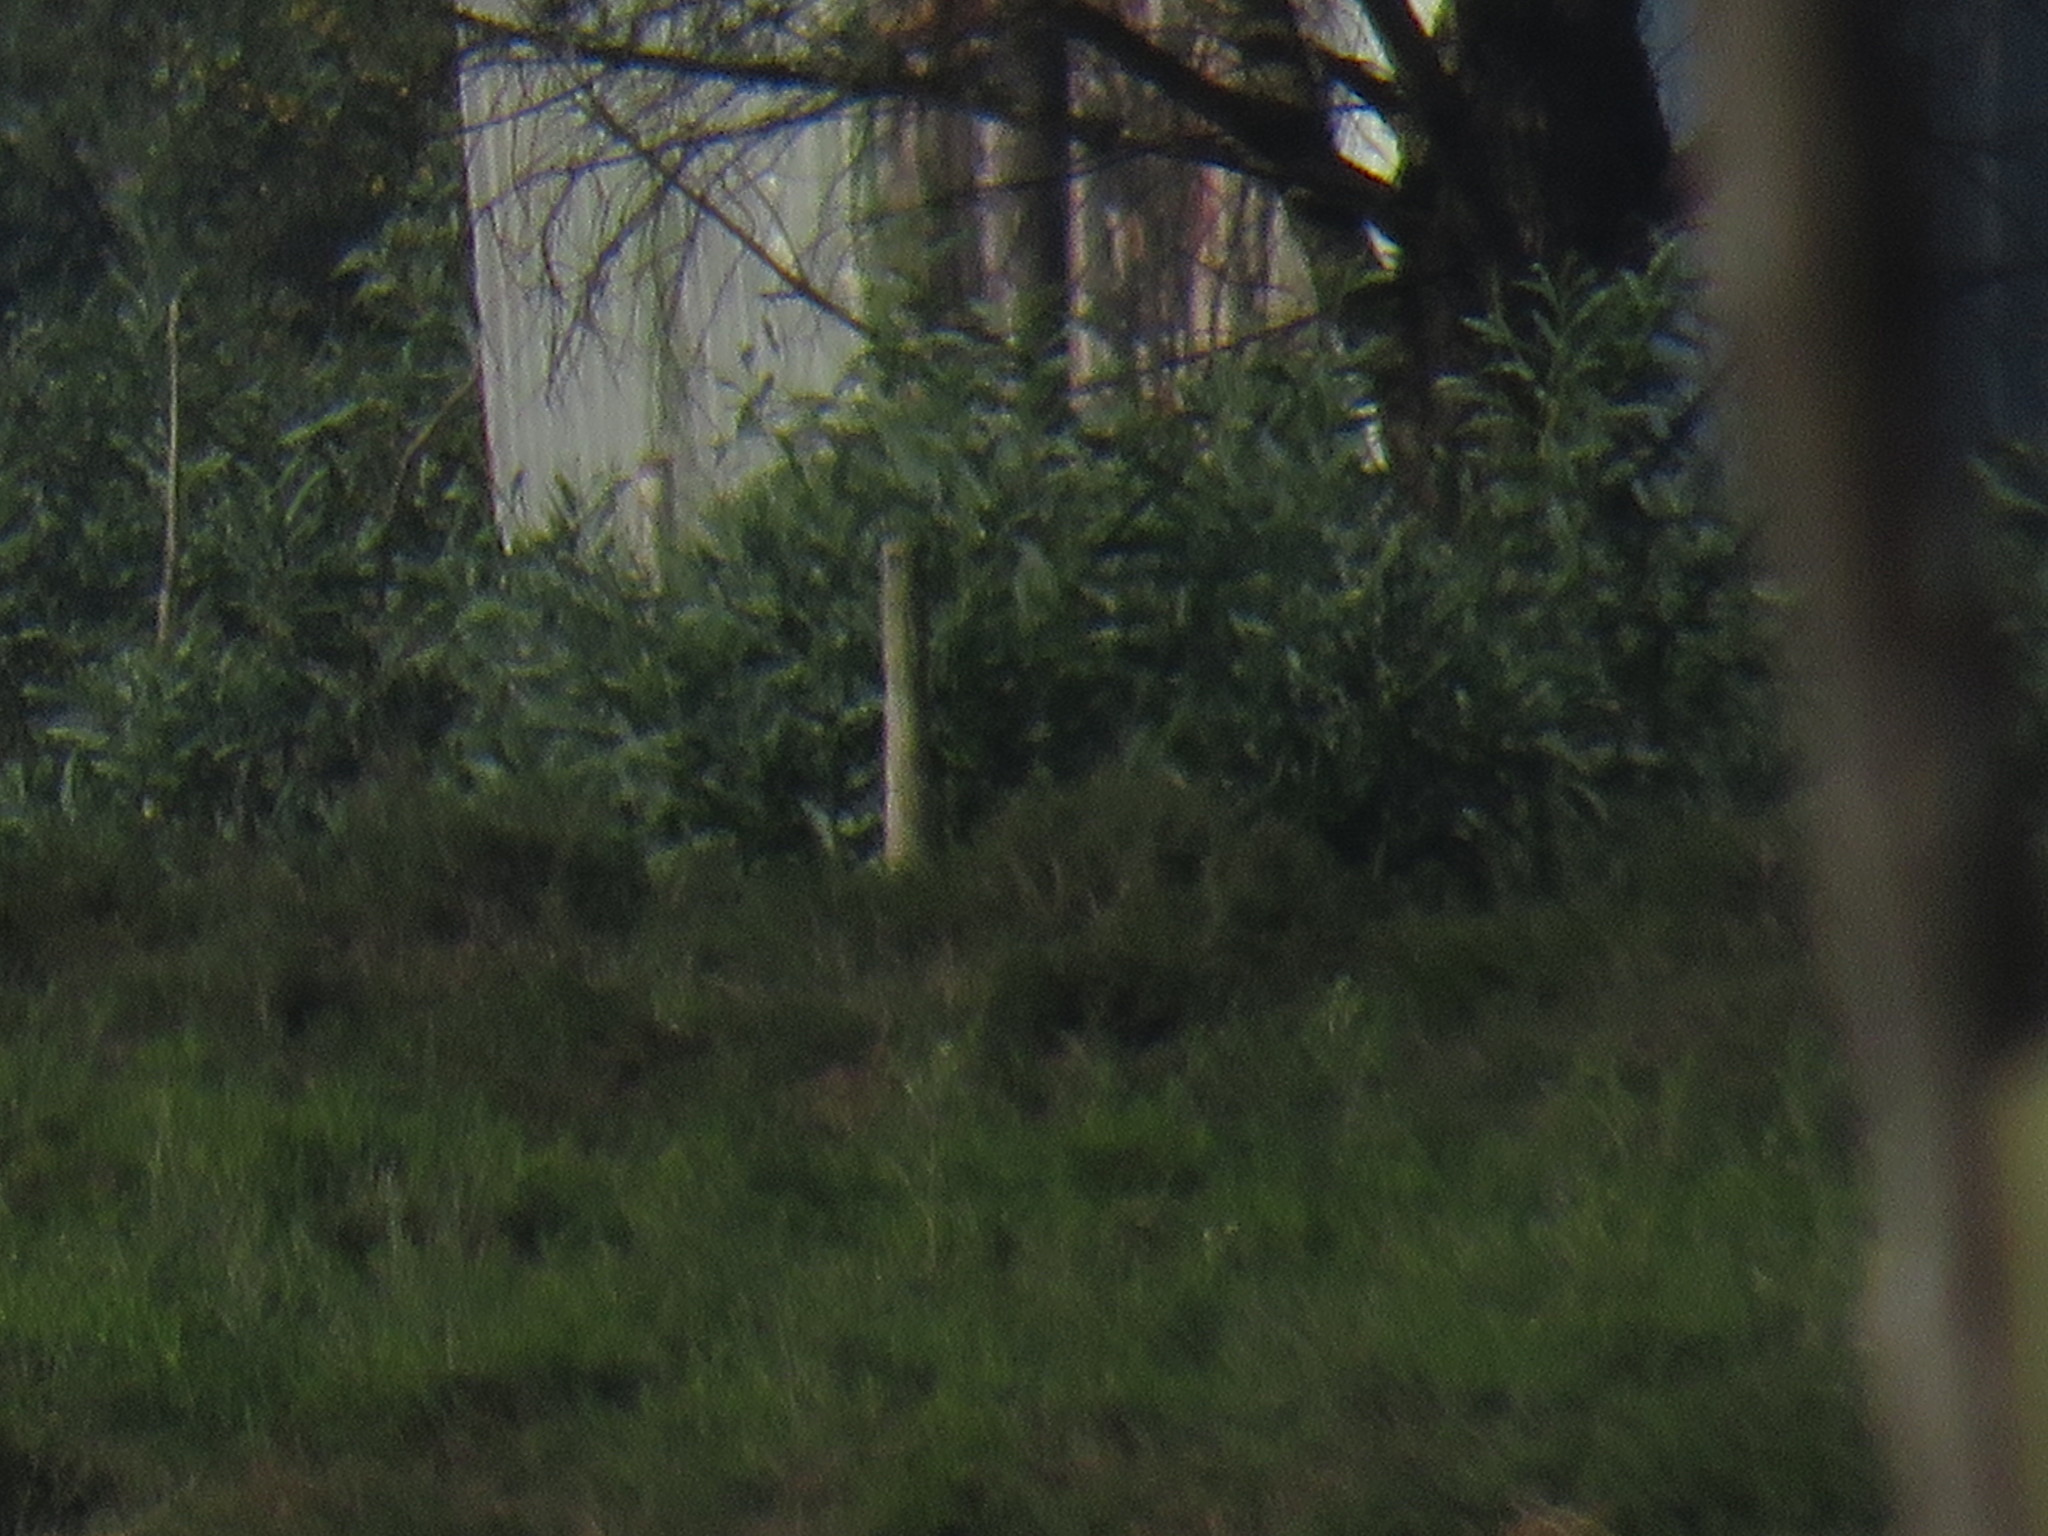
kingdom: Plantae
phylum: Tracheophyta
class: Magnoliopsida
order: Fabales
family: Fabaceae
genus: Acacia
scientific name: Acacia saligna
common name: Orange wattle
